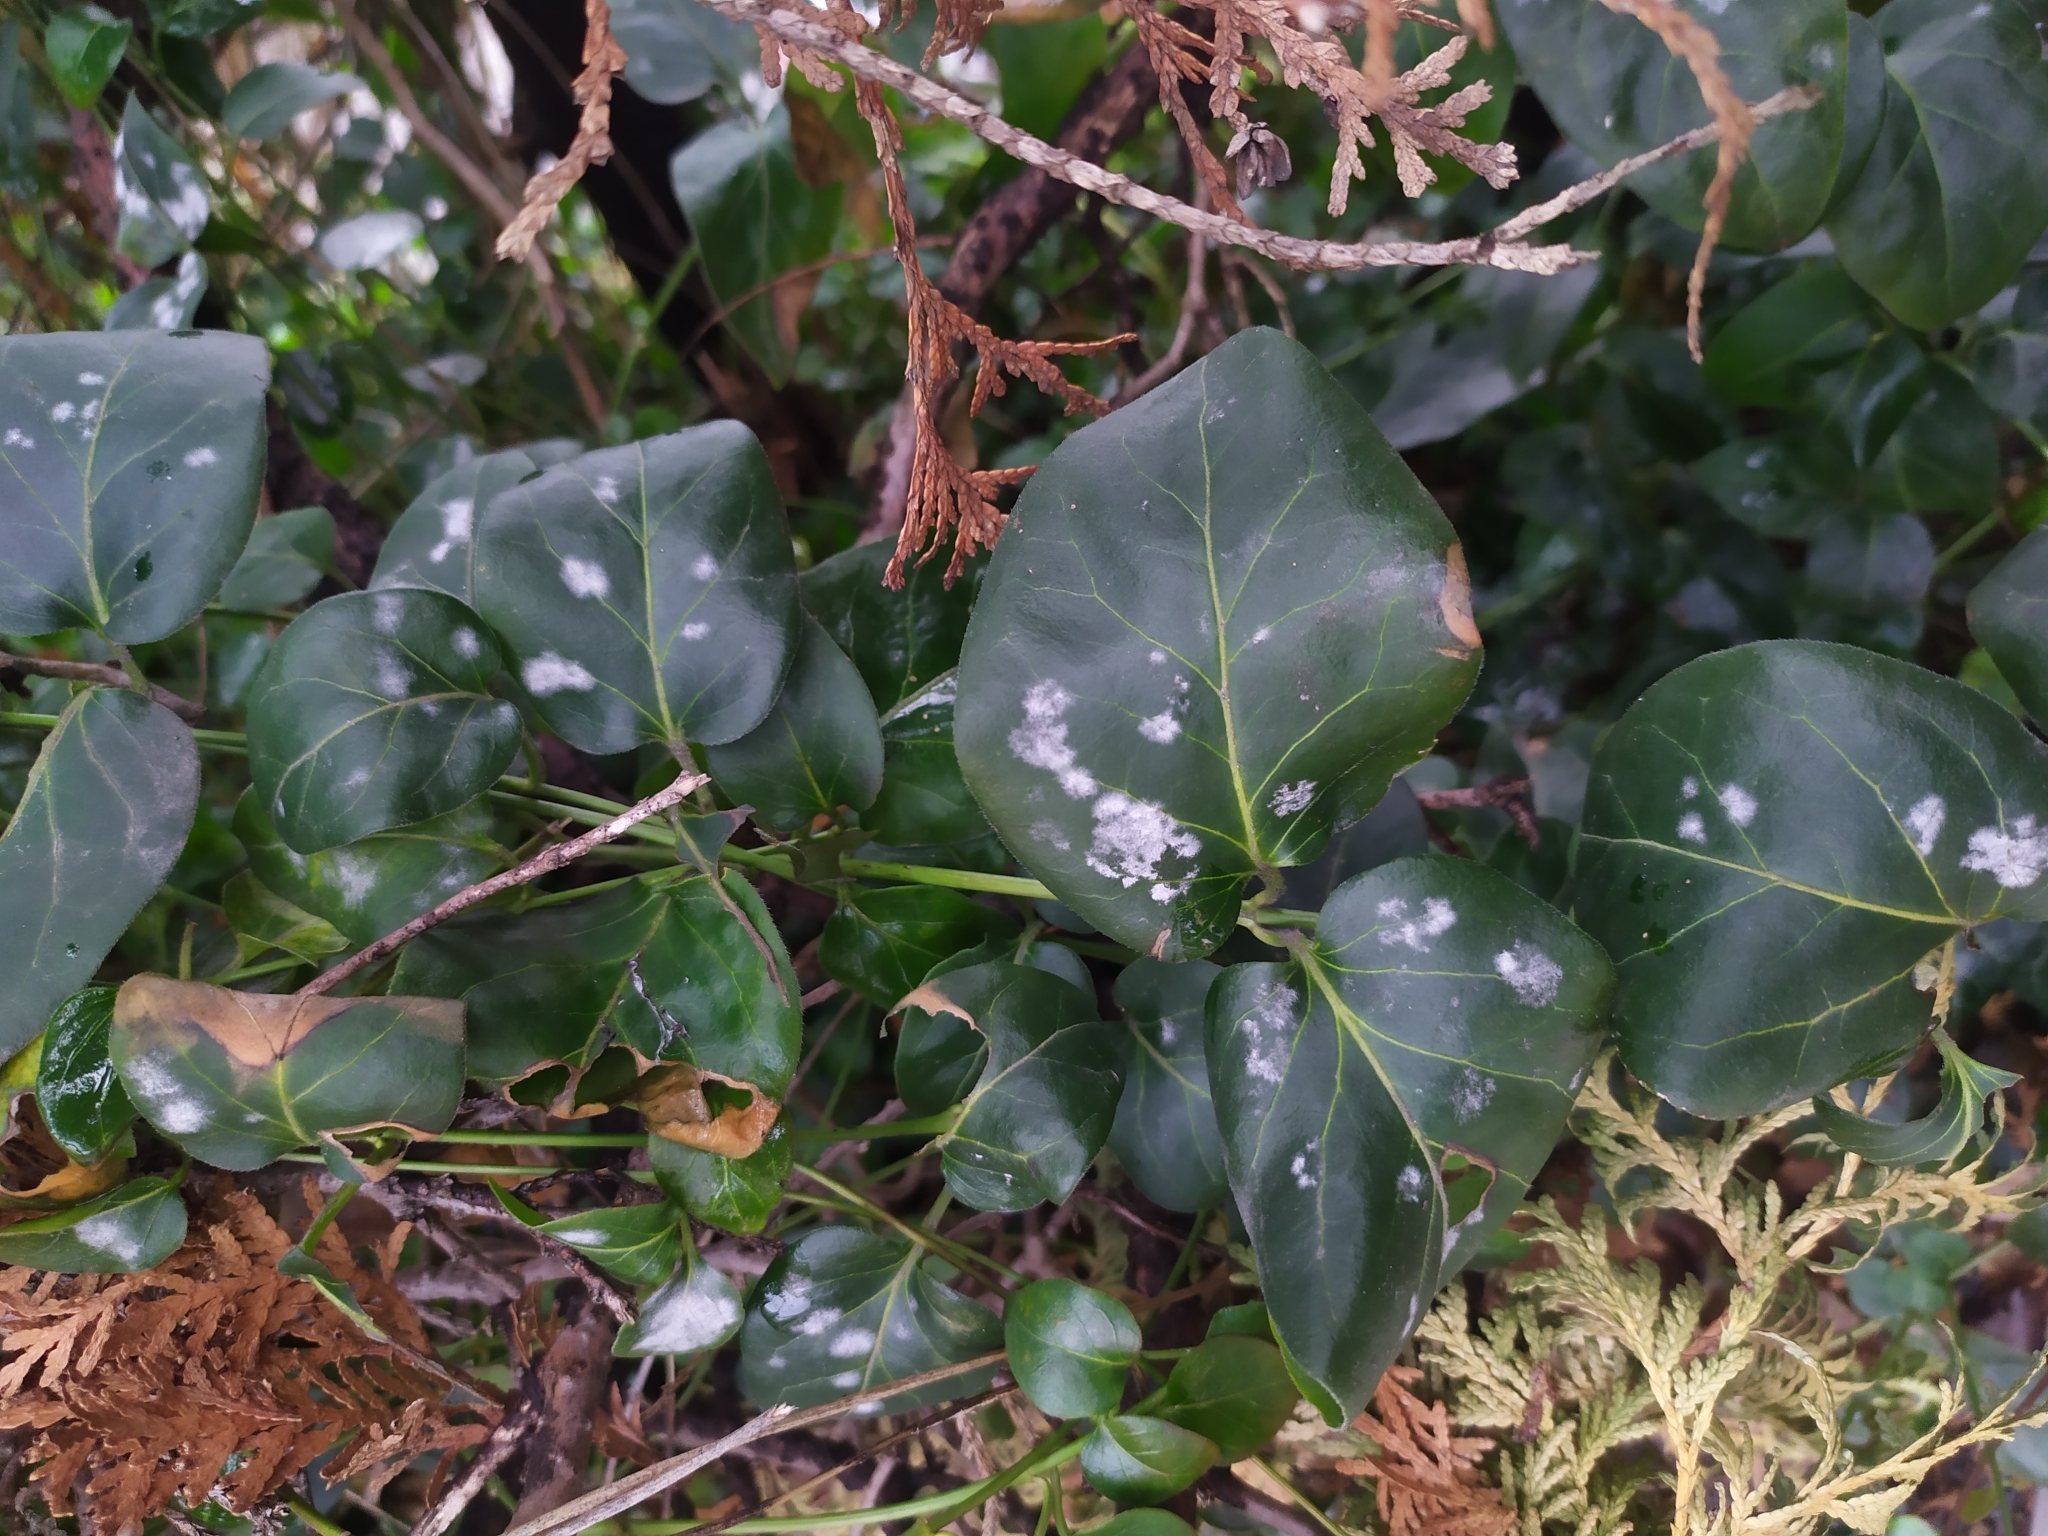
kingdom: Fungi
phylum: Ascomycota
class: Leotiomycetes
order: Helotiales
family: Erysiphaceae
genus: Golovinomyces
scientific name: Golovinomyces vincae
